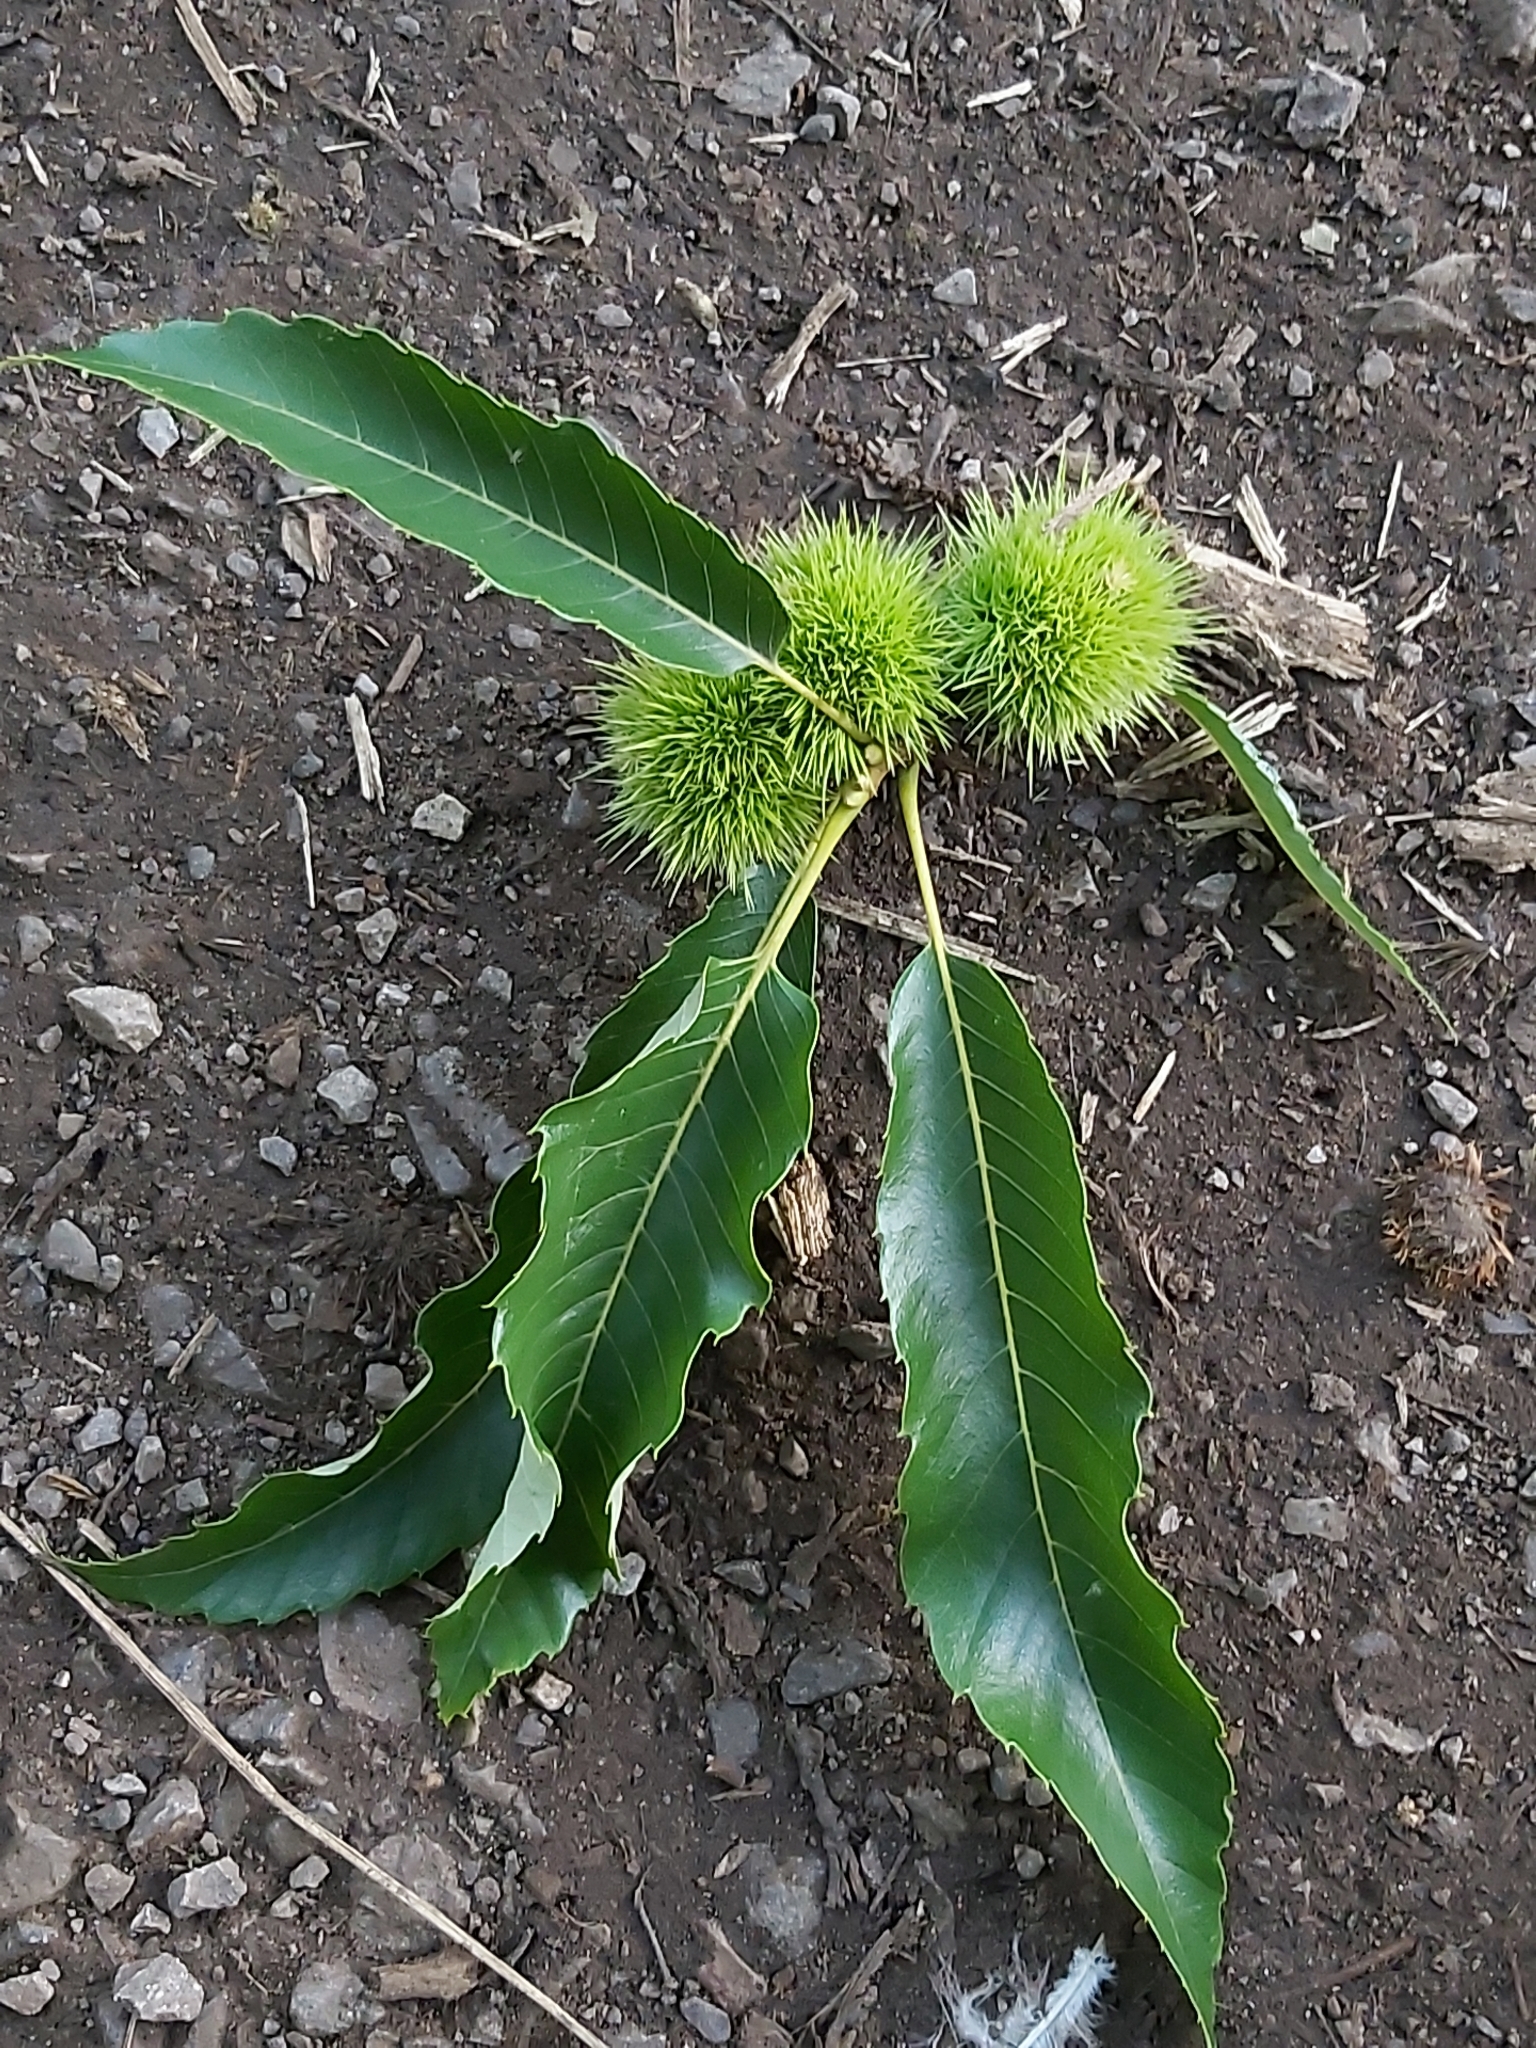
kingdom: Plantae
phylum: Tracheophyta
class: Magnoliopsida
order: Fagales
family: Fagaceae
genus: Castanea
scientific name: Castanea sativa
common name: Sweet chestnut
